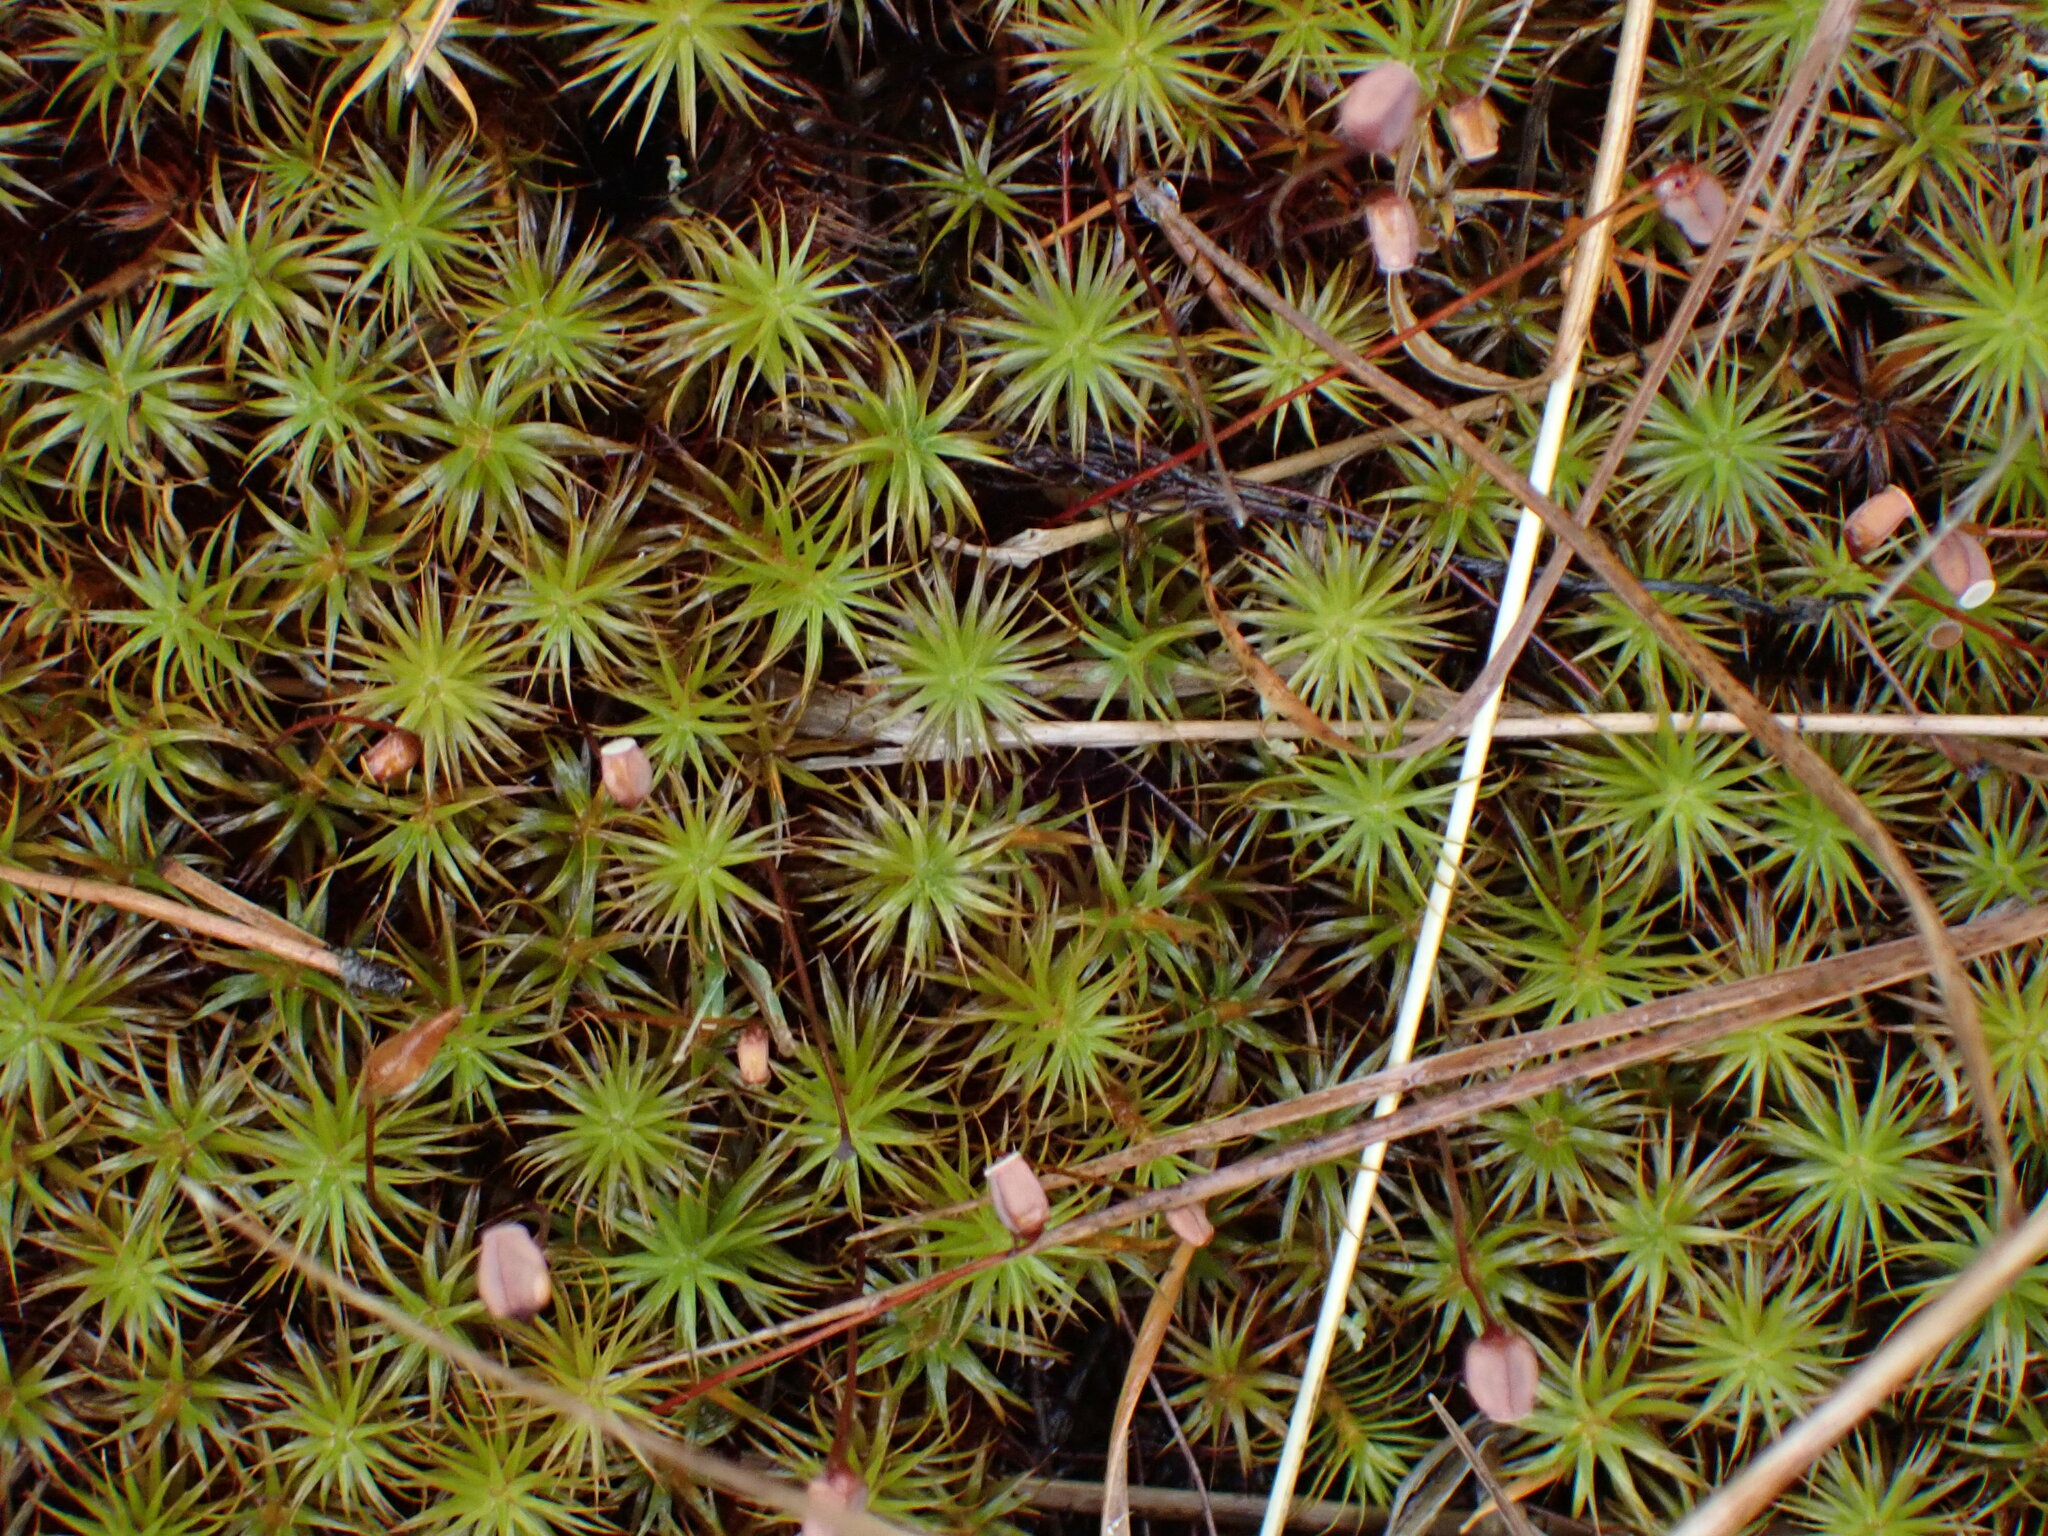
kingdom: Plantae
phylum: Bryophyta
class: Polytrichopsida
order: Polytrichales
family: Polytrichaceae
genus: Polytrichum
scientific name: Polytrichum juniperinum
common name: Juniper haircap moss
